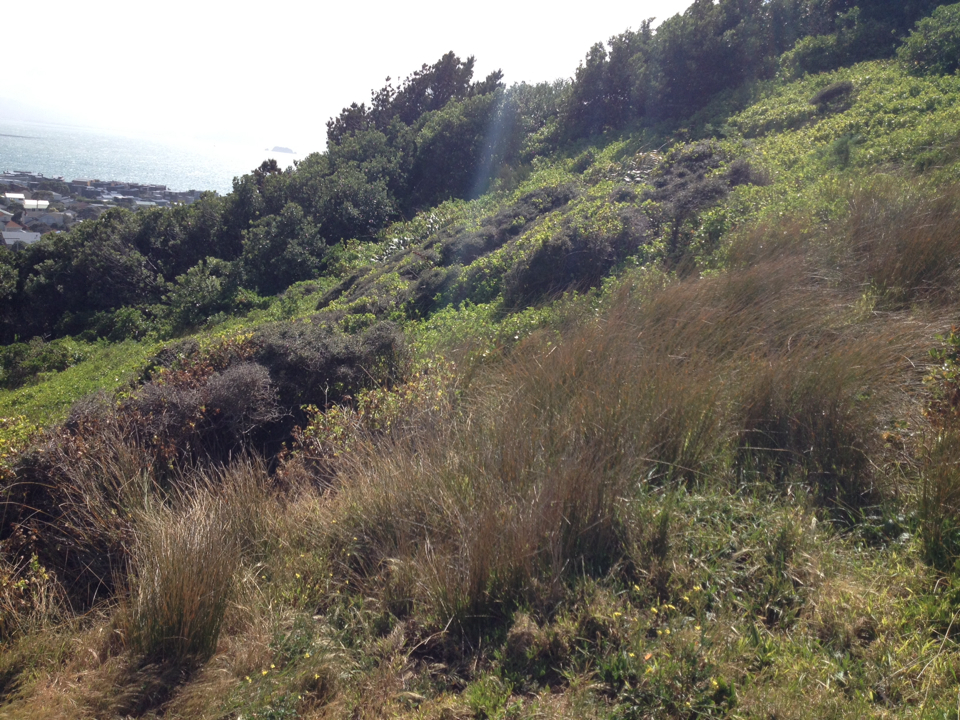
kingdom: Plantae
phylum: Tracheophyta
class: Liliopsida
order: Poales
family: Cyperaceae
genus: Ficinia
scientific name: Ficinia nodosa
